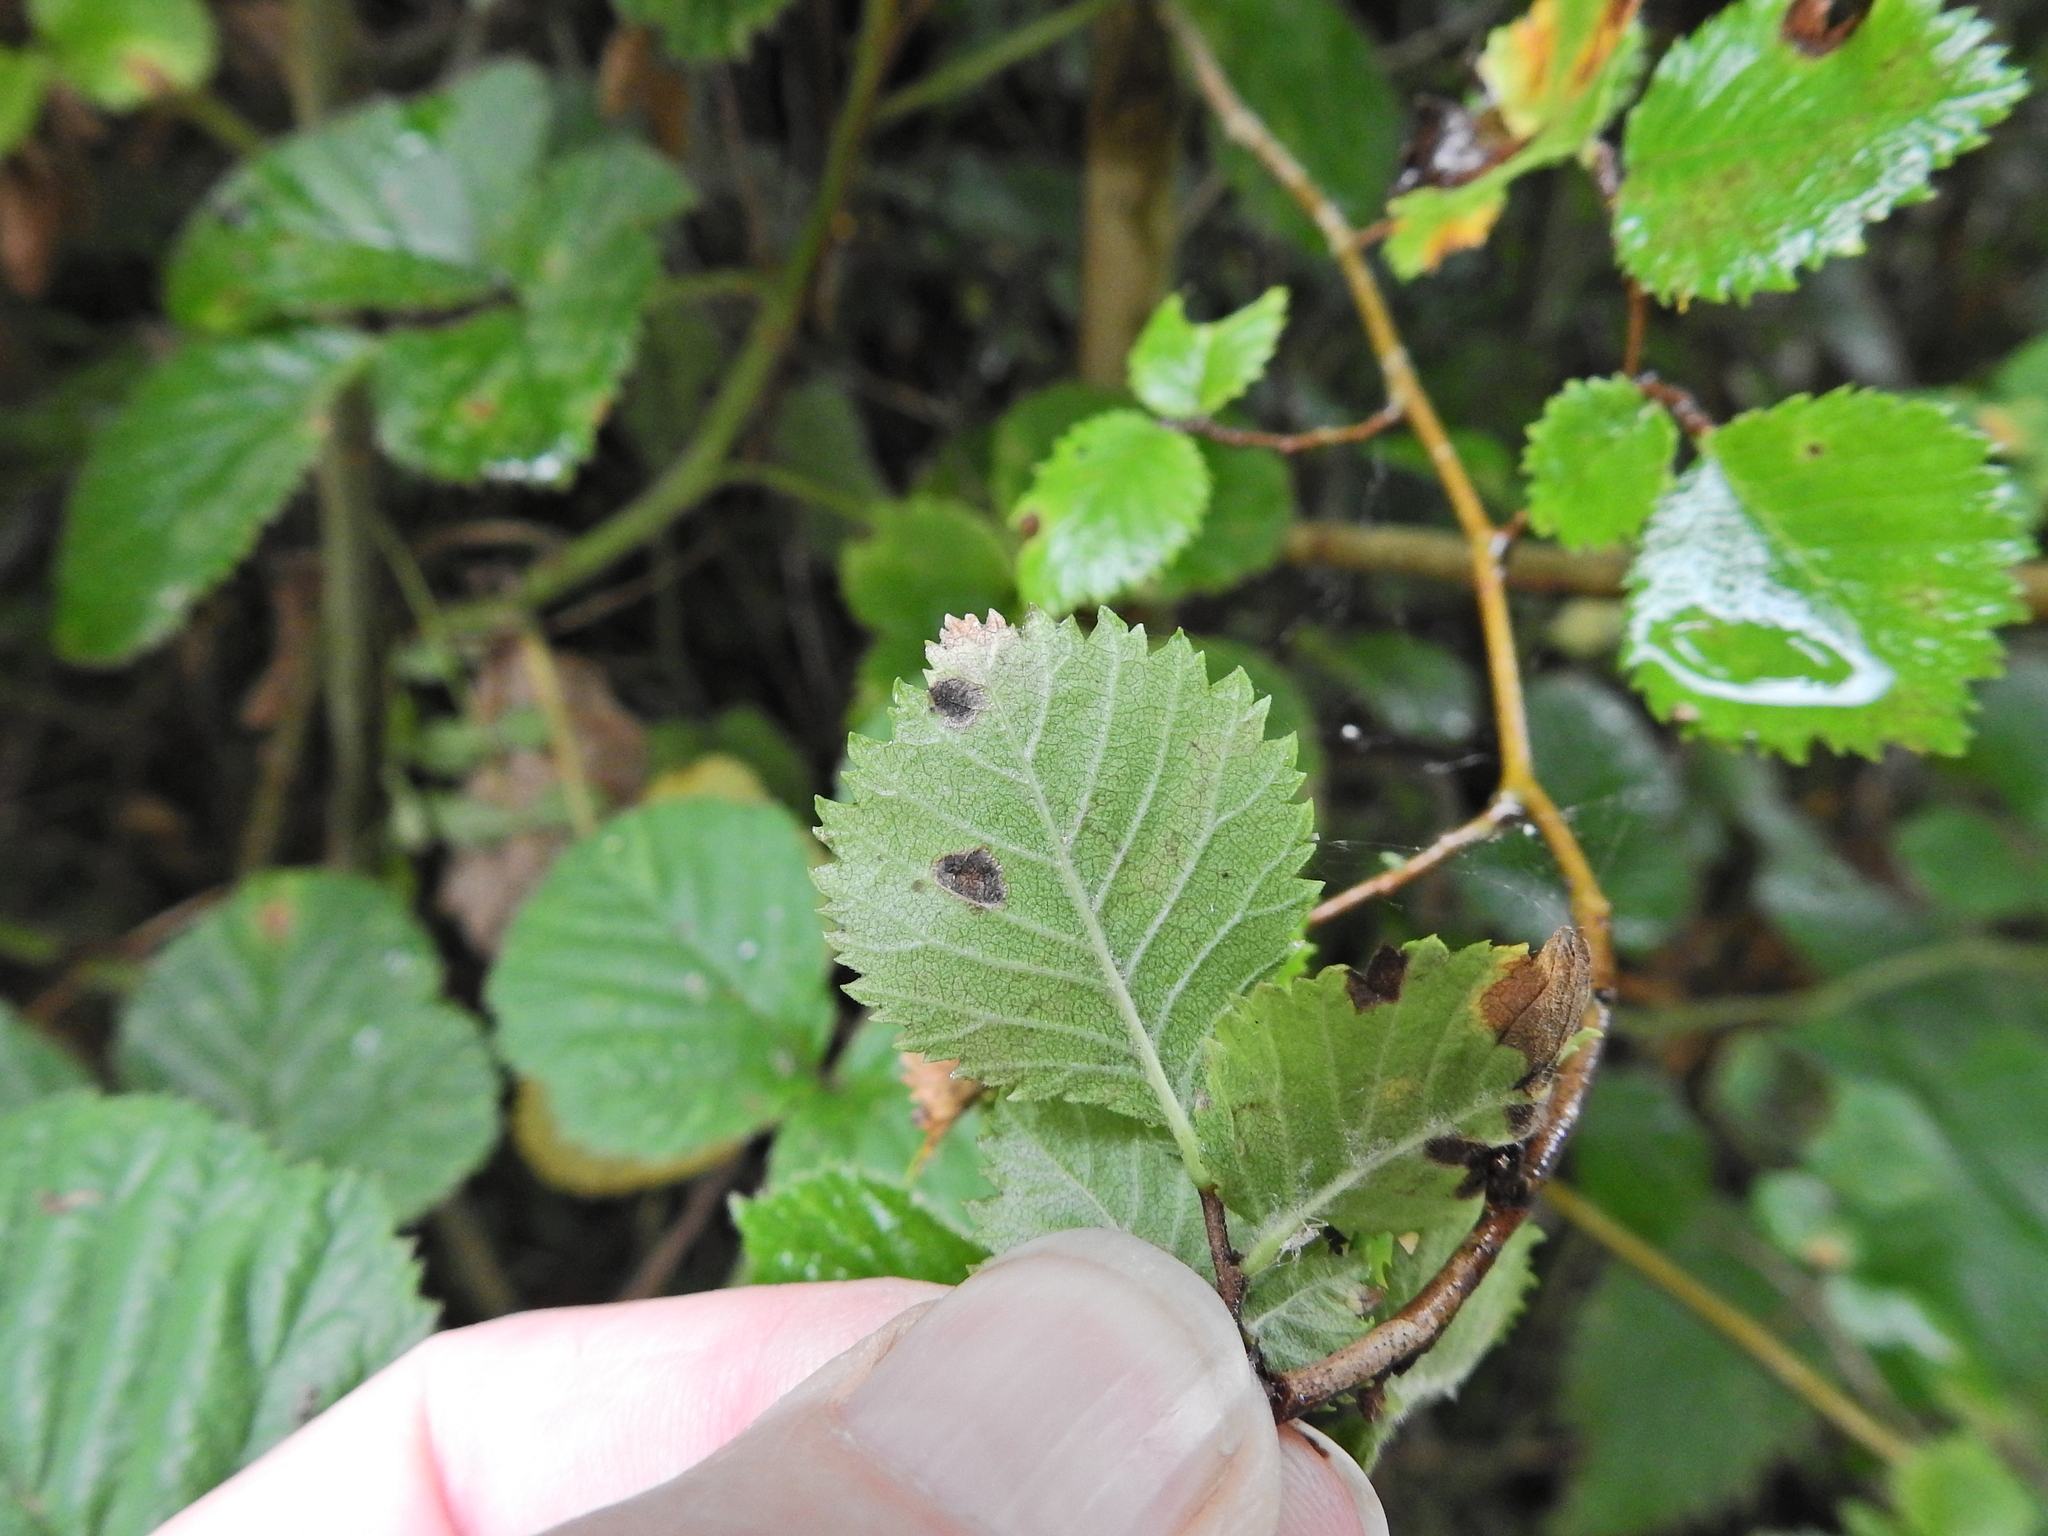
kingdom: Plantae
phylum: Tracheophyta
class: Magnoliopsida
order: Rosales
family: Ulmaceae
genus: Ulmus
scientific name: Ulmus minor
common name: Small-leaved elm
